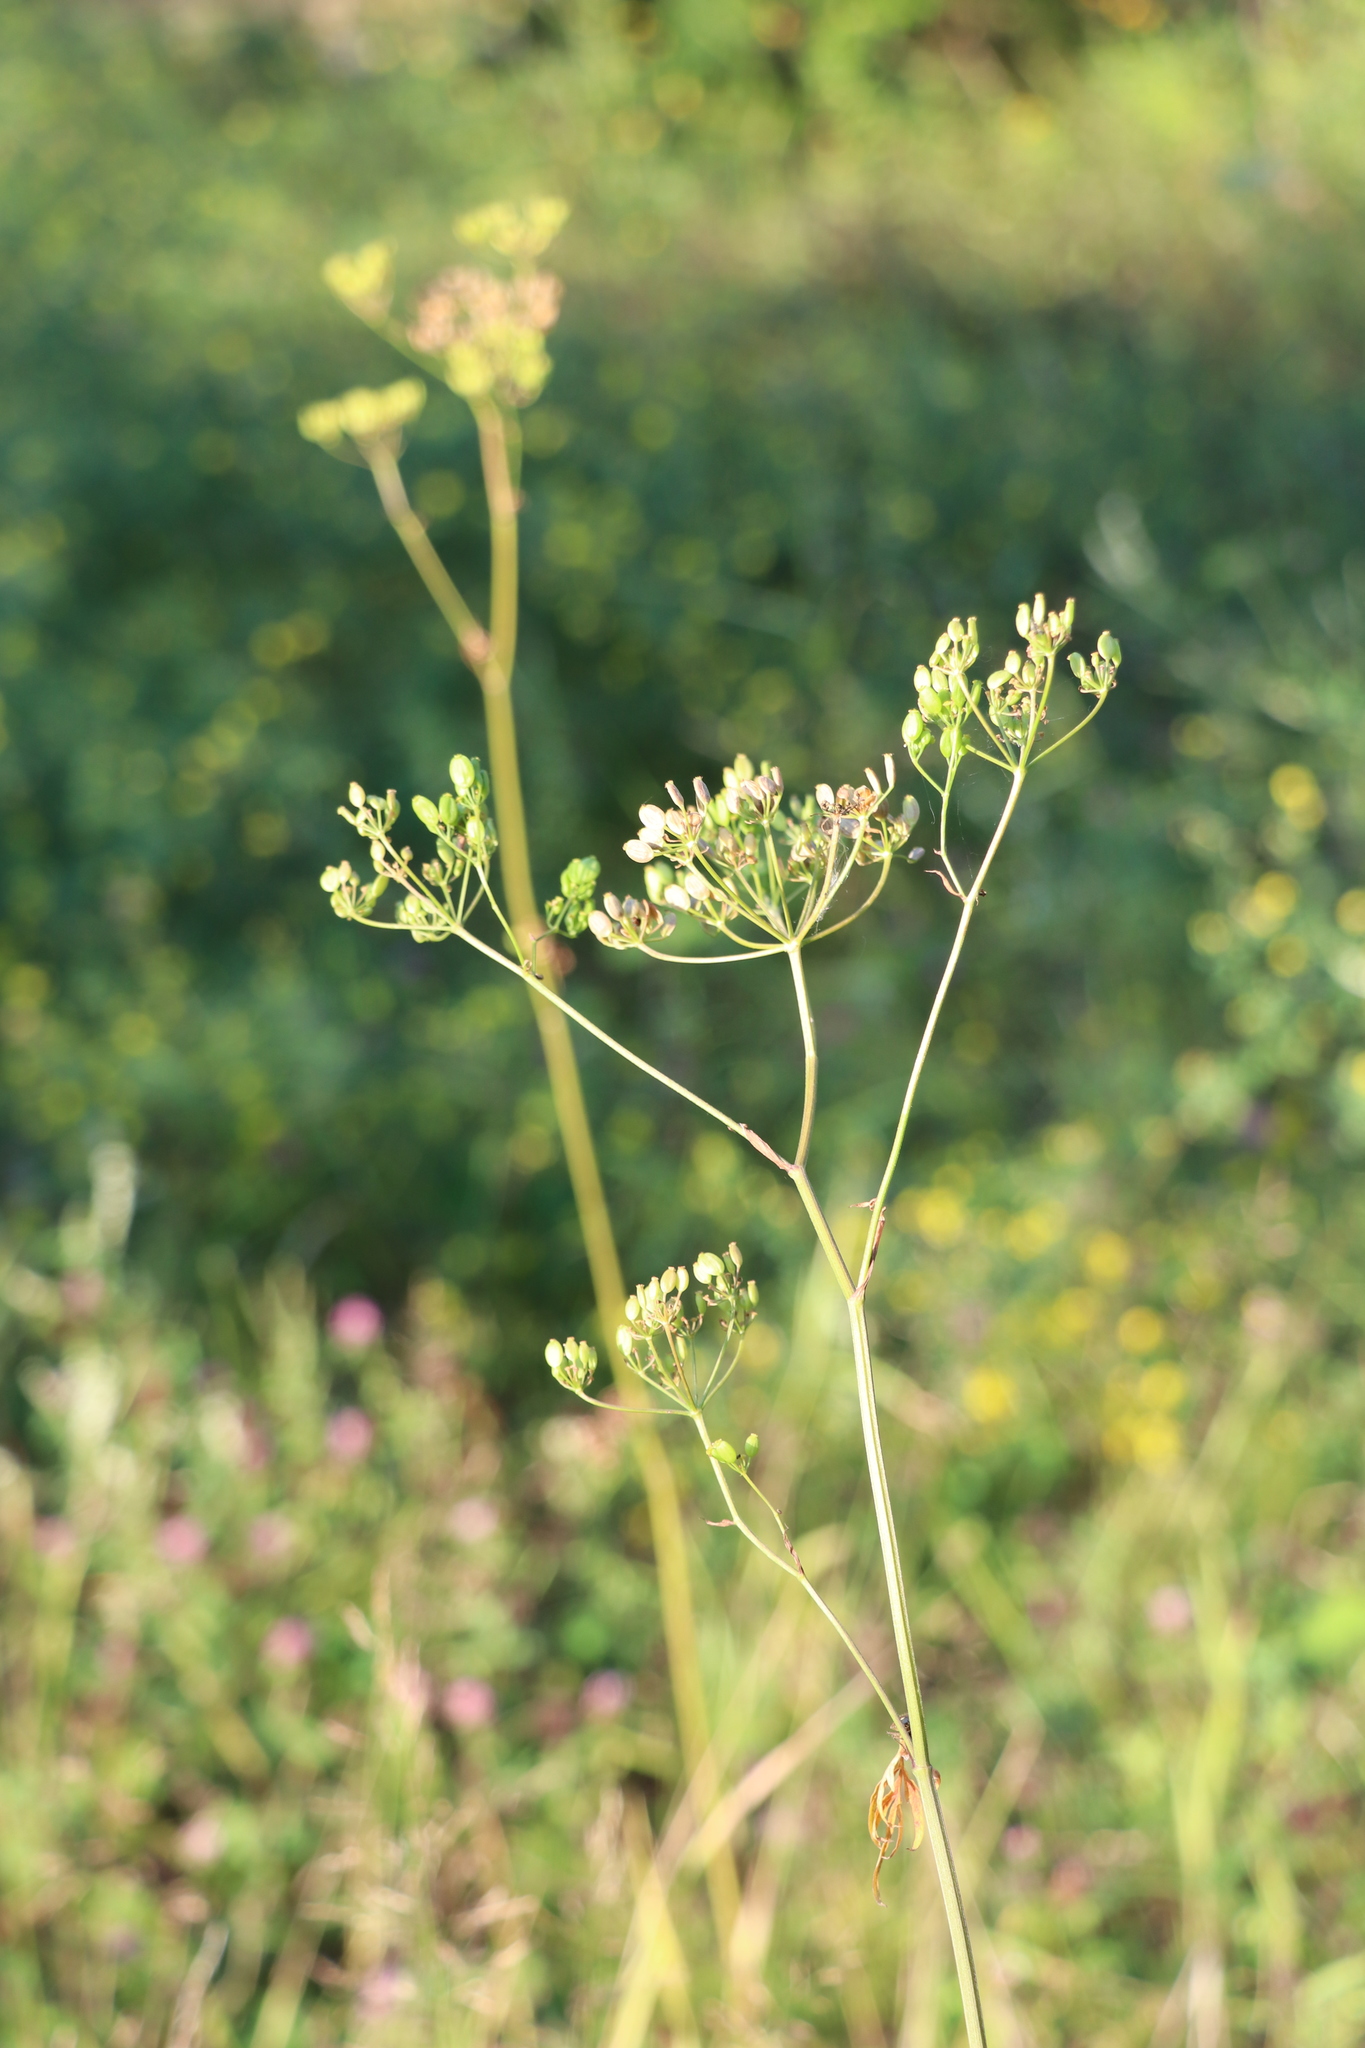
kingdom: Plantae
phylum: Tracheophyta
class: Magnoliopsida
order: Apiales
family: Apiaceae
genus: Pastinaca
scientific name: Pastinaca sativa
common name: Wild parsnip
